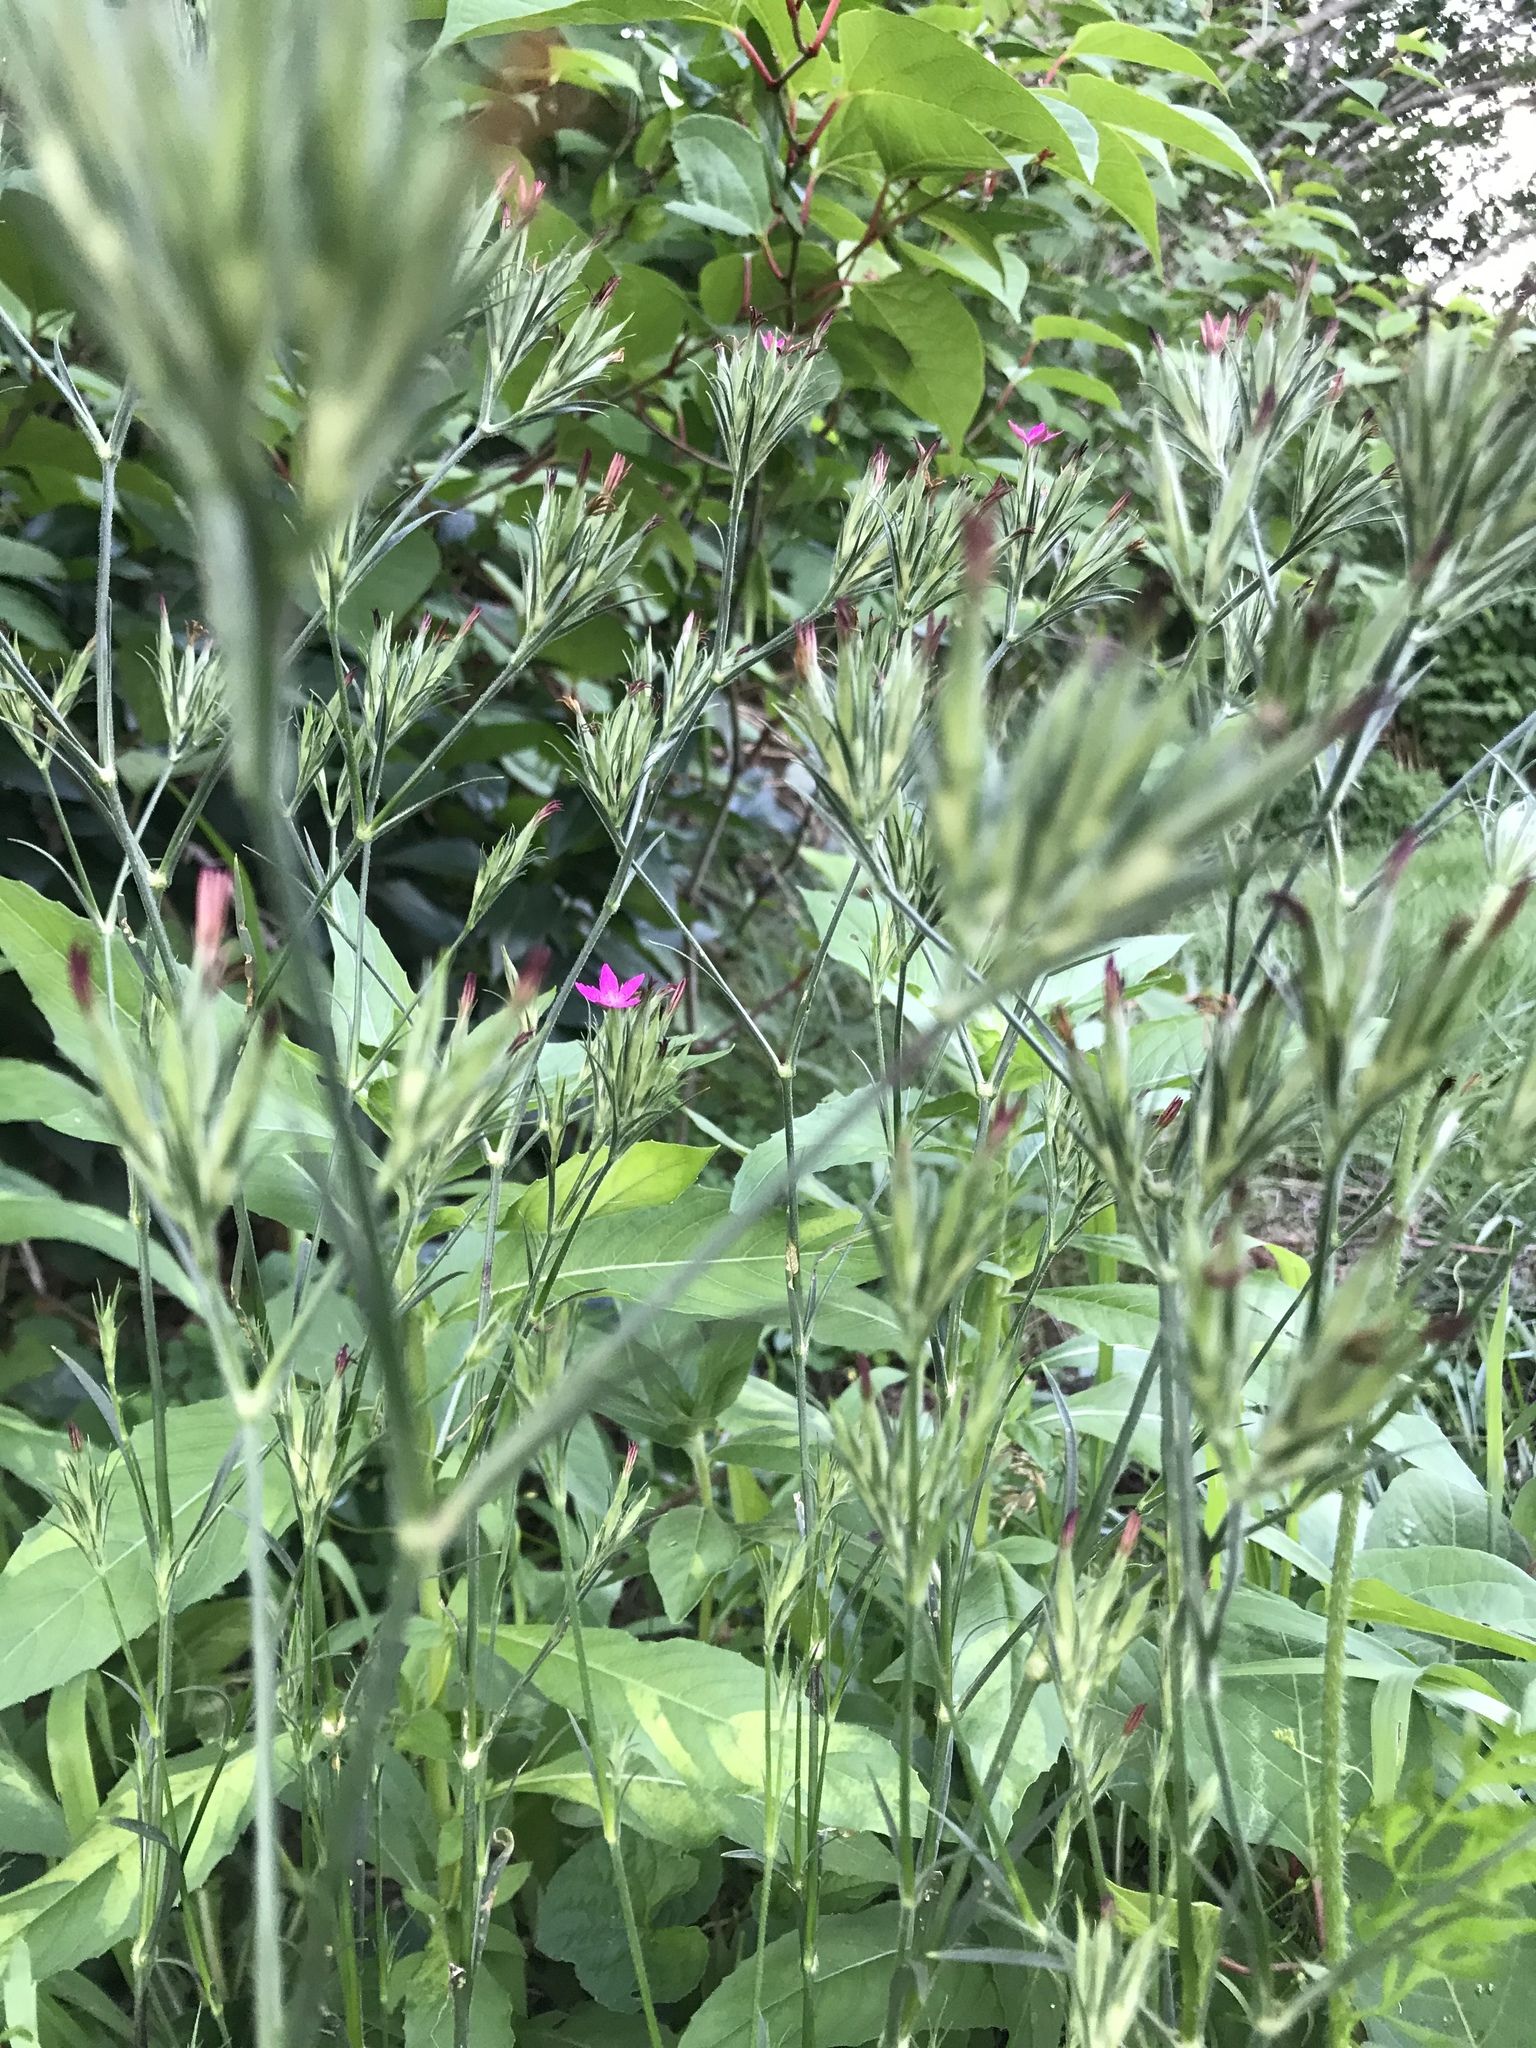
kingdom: Plantae
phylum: Tracheophyta
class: Magnoliopsida
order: Caryophyllales
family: Caryophyllaceae
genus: Dianthus
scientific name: Dianthus armeria
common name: Deptford pink
